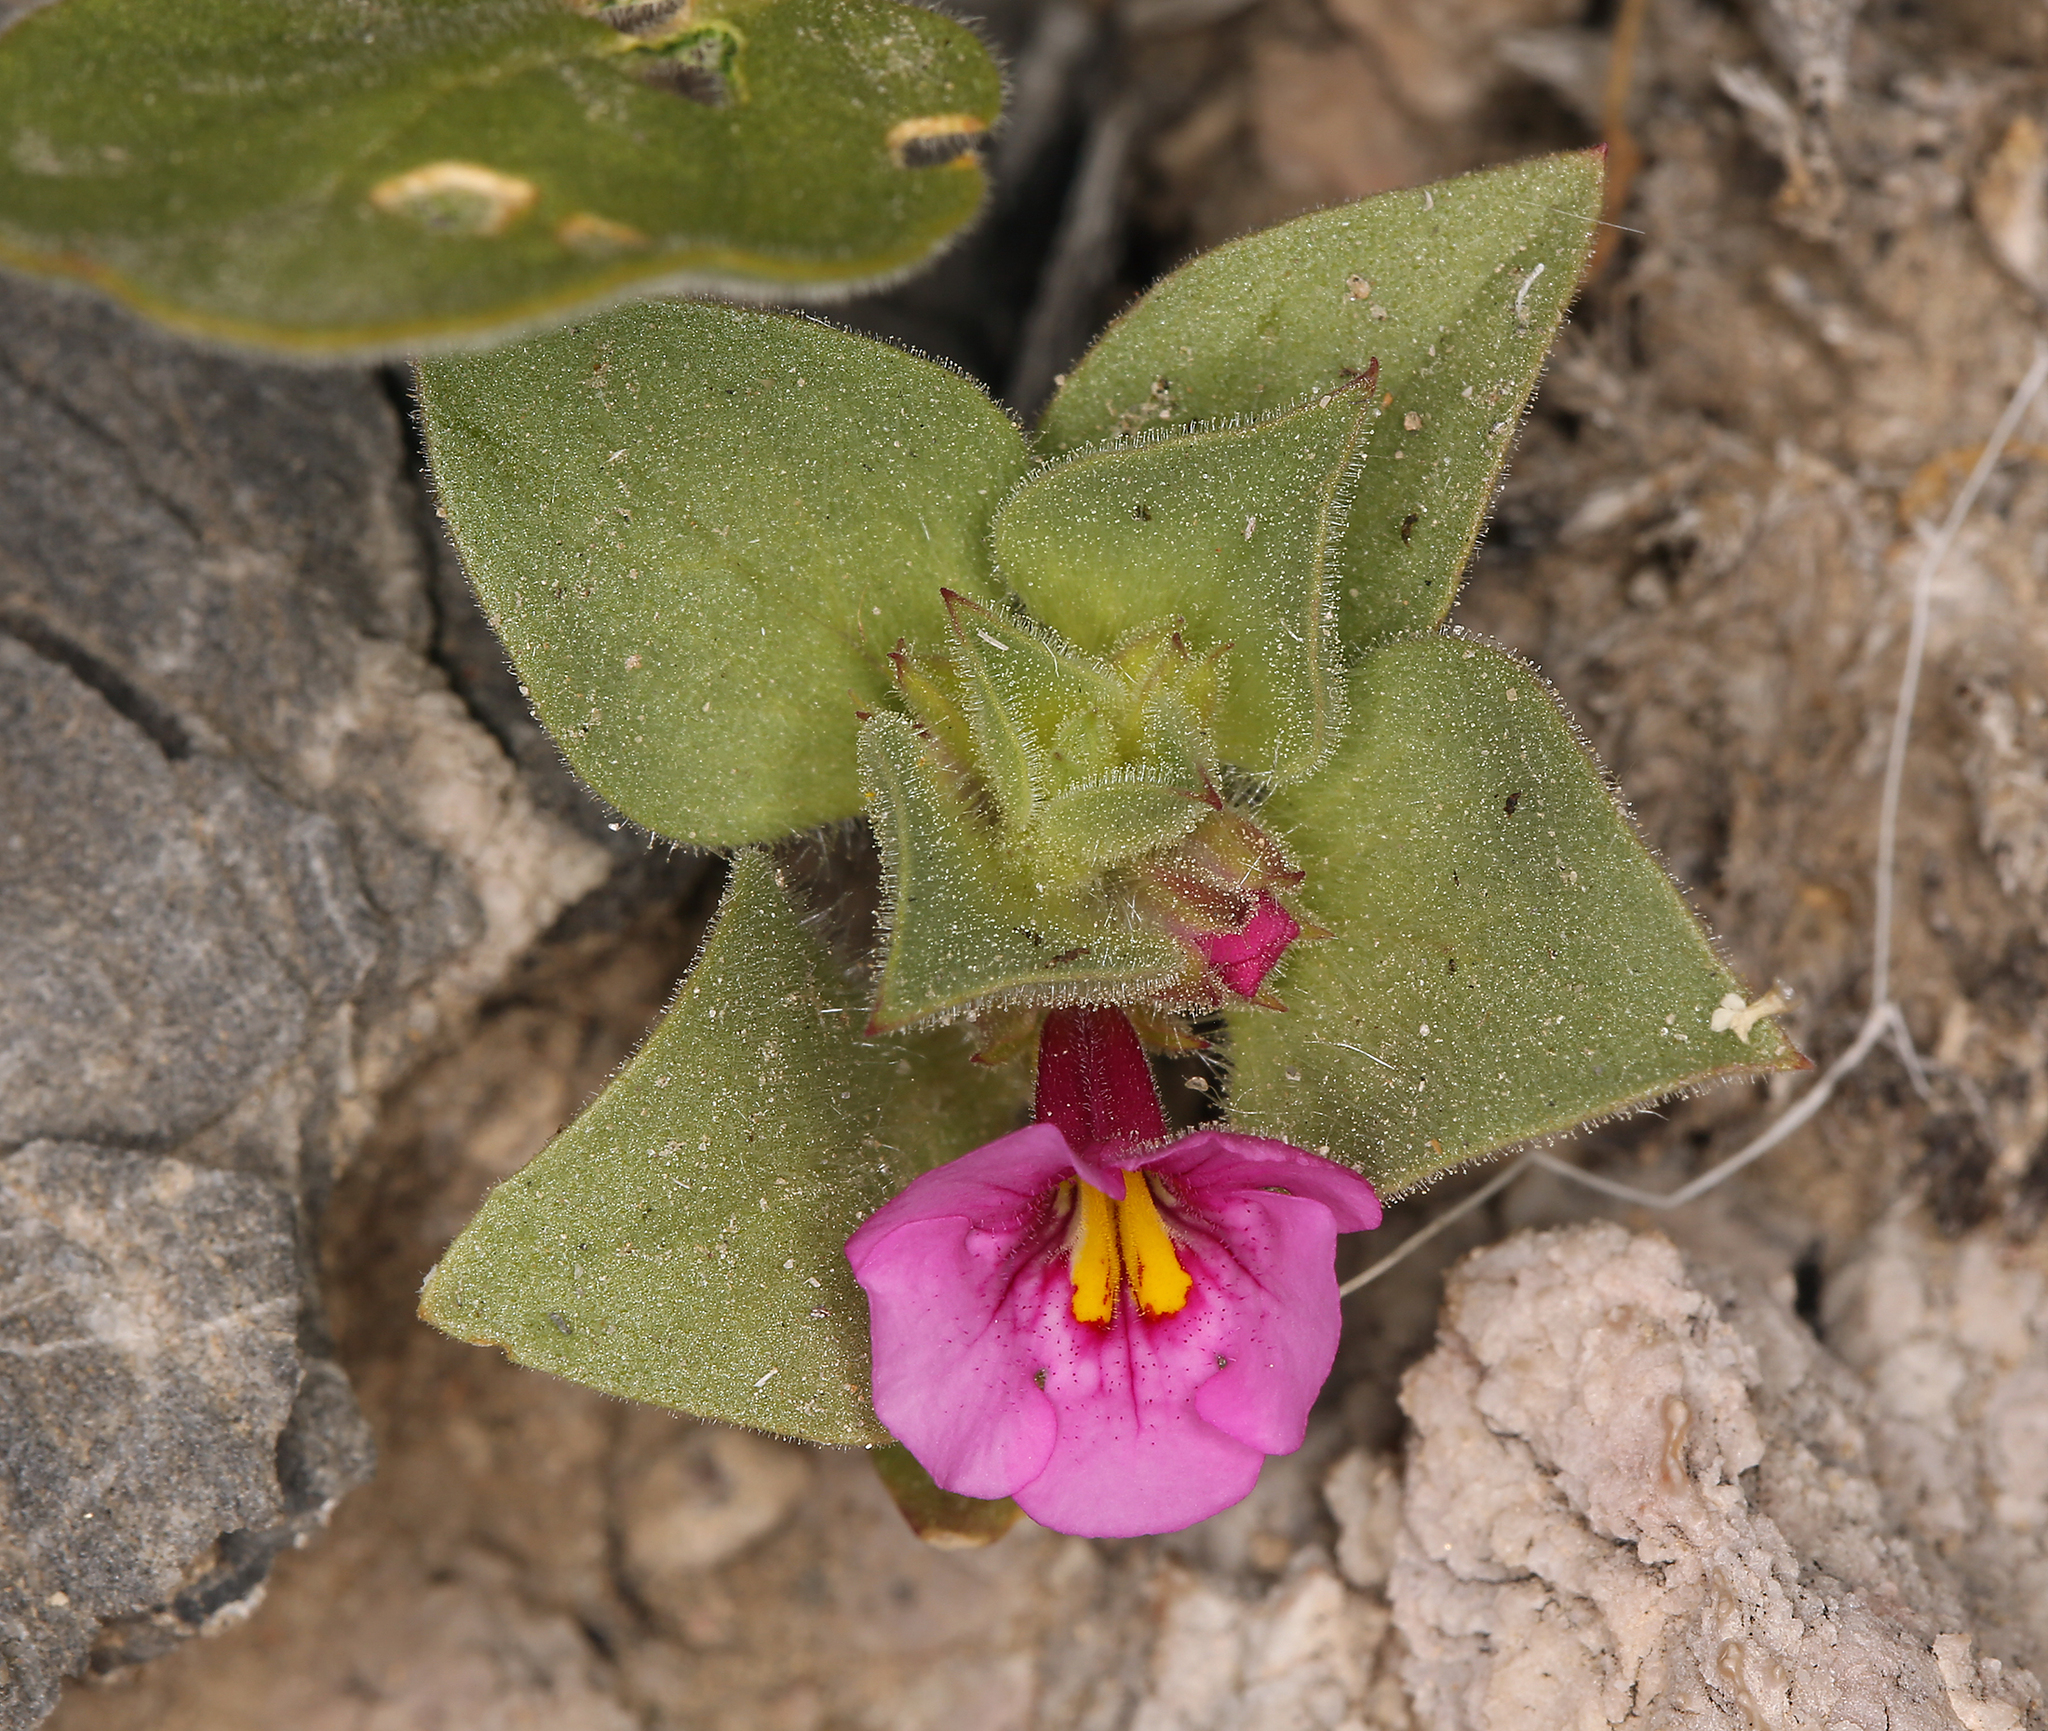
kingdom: Plantae
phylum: Tracheophyta
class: Magnoliopsida
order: Lamiales
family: Phrymaceae
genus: Diplacus
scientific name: Diplacus bigelovii
